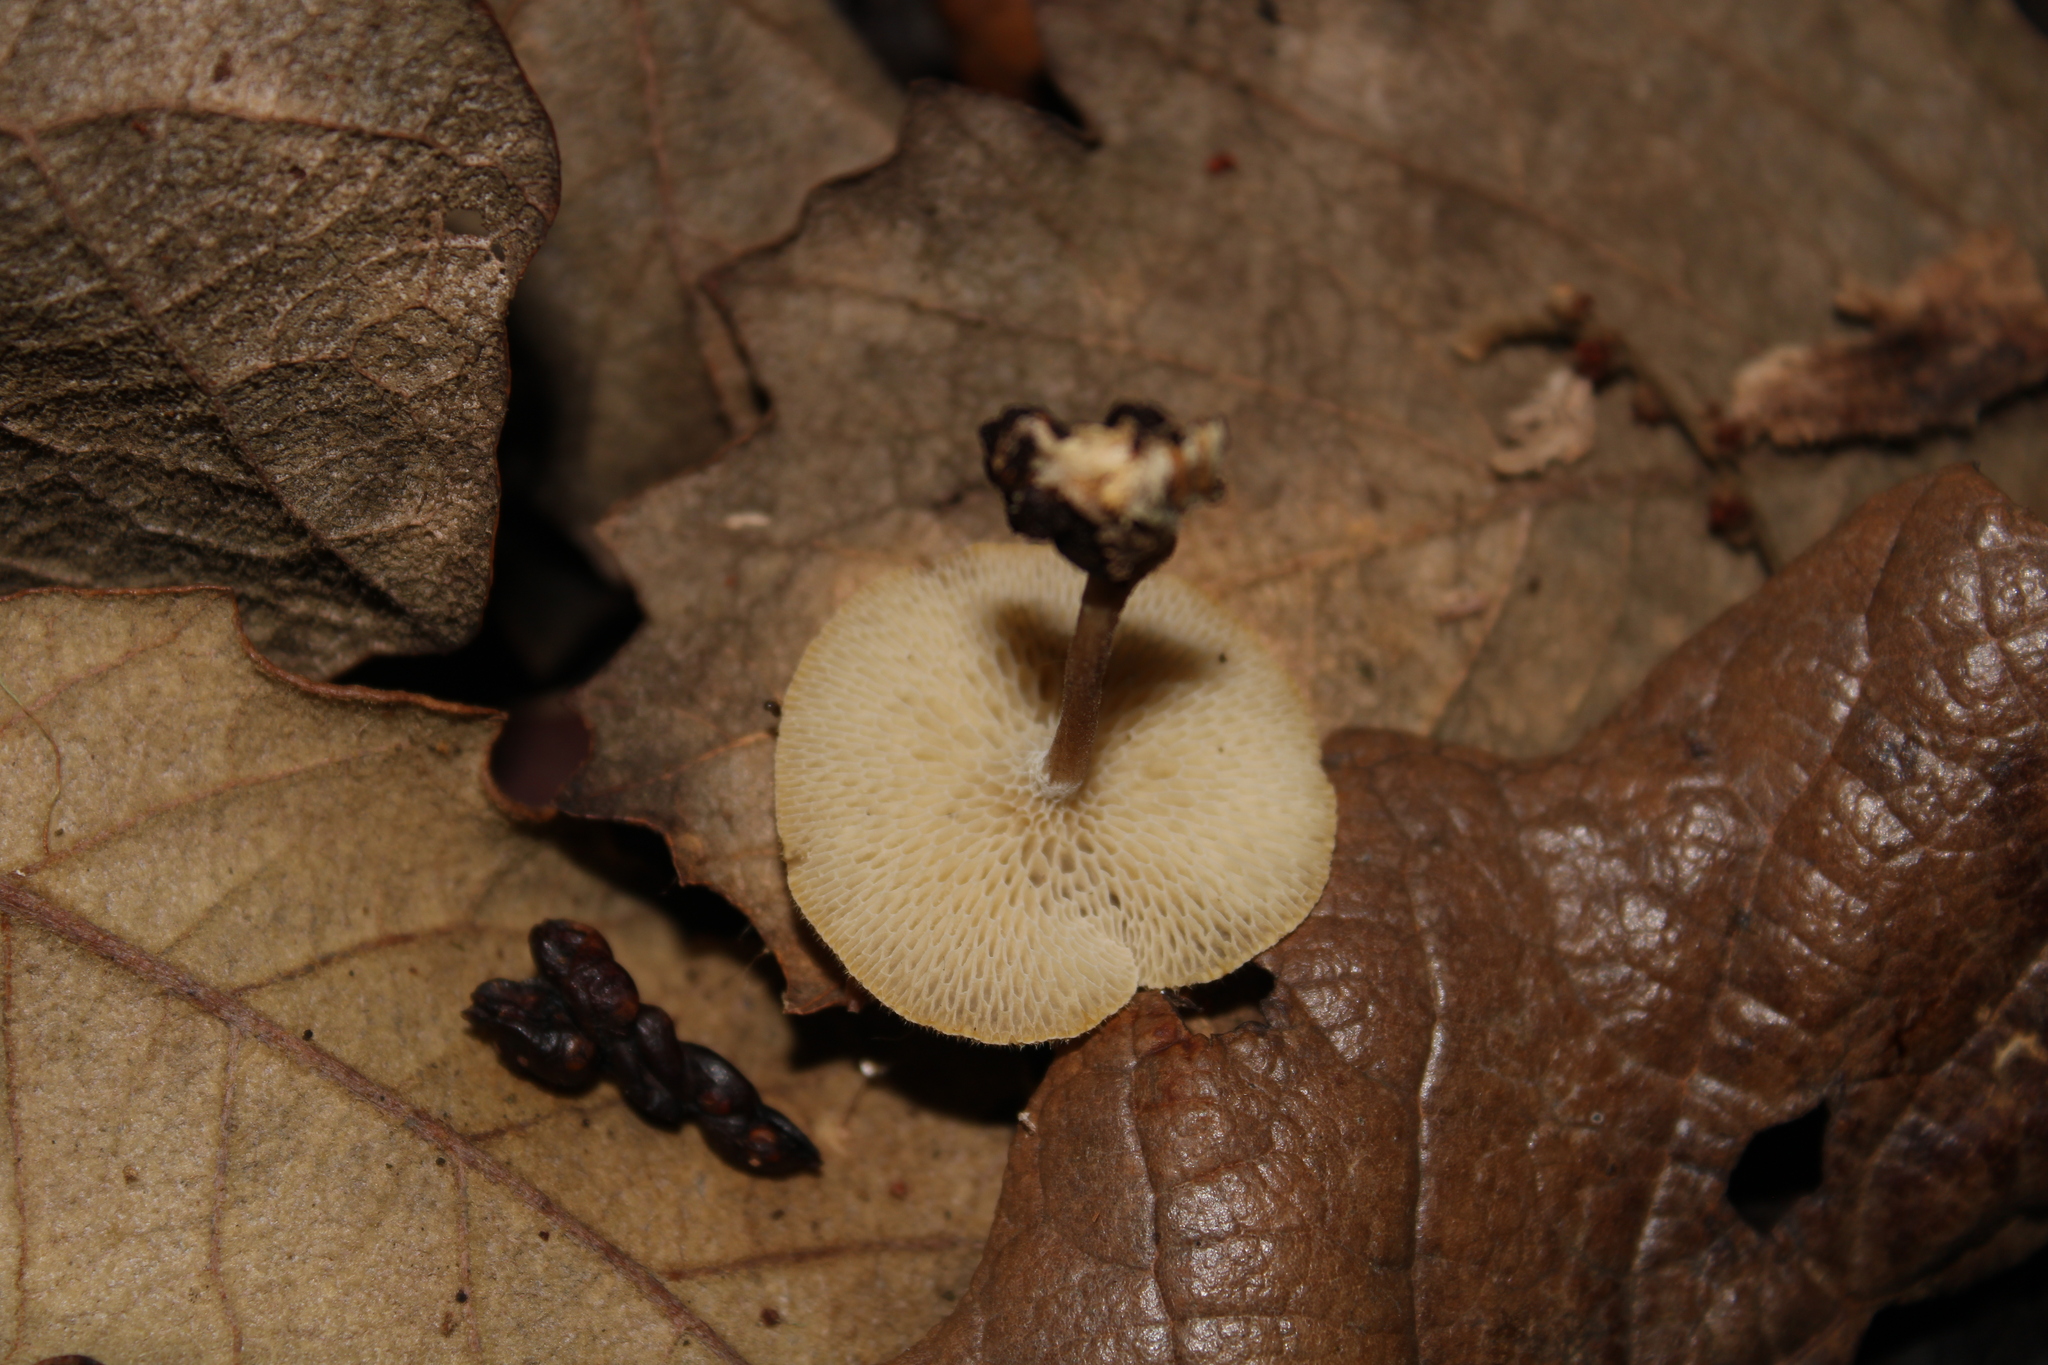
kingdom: Fungi
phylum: Basidiomycota
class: Agaricomycetes
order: Polyporales
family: Polyporaceae
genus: Lentinus
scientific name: Lentinus arcularius
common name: Spring polypore
